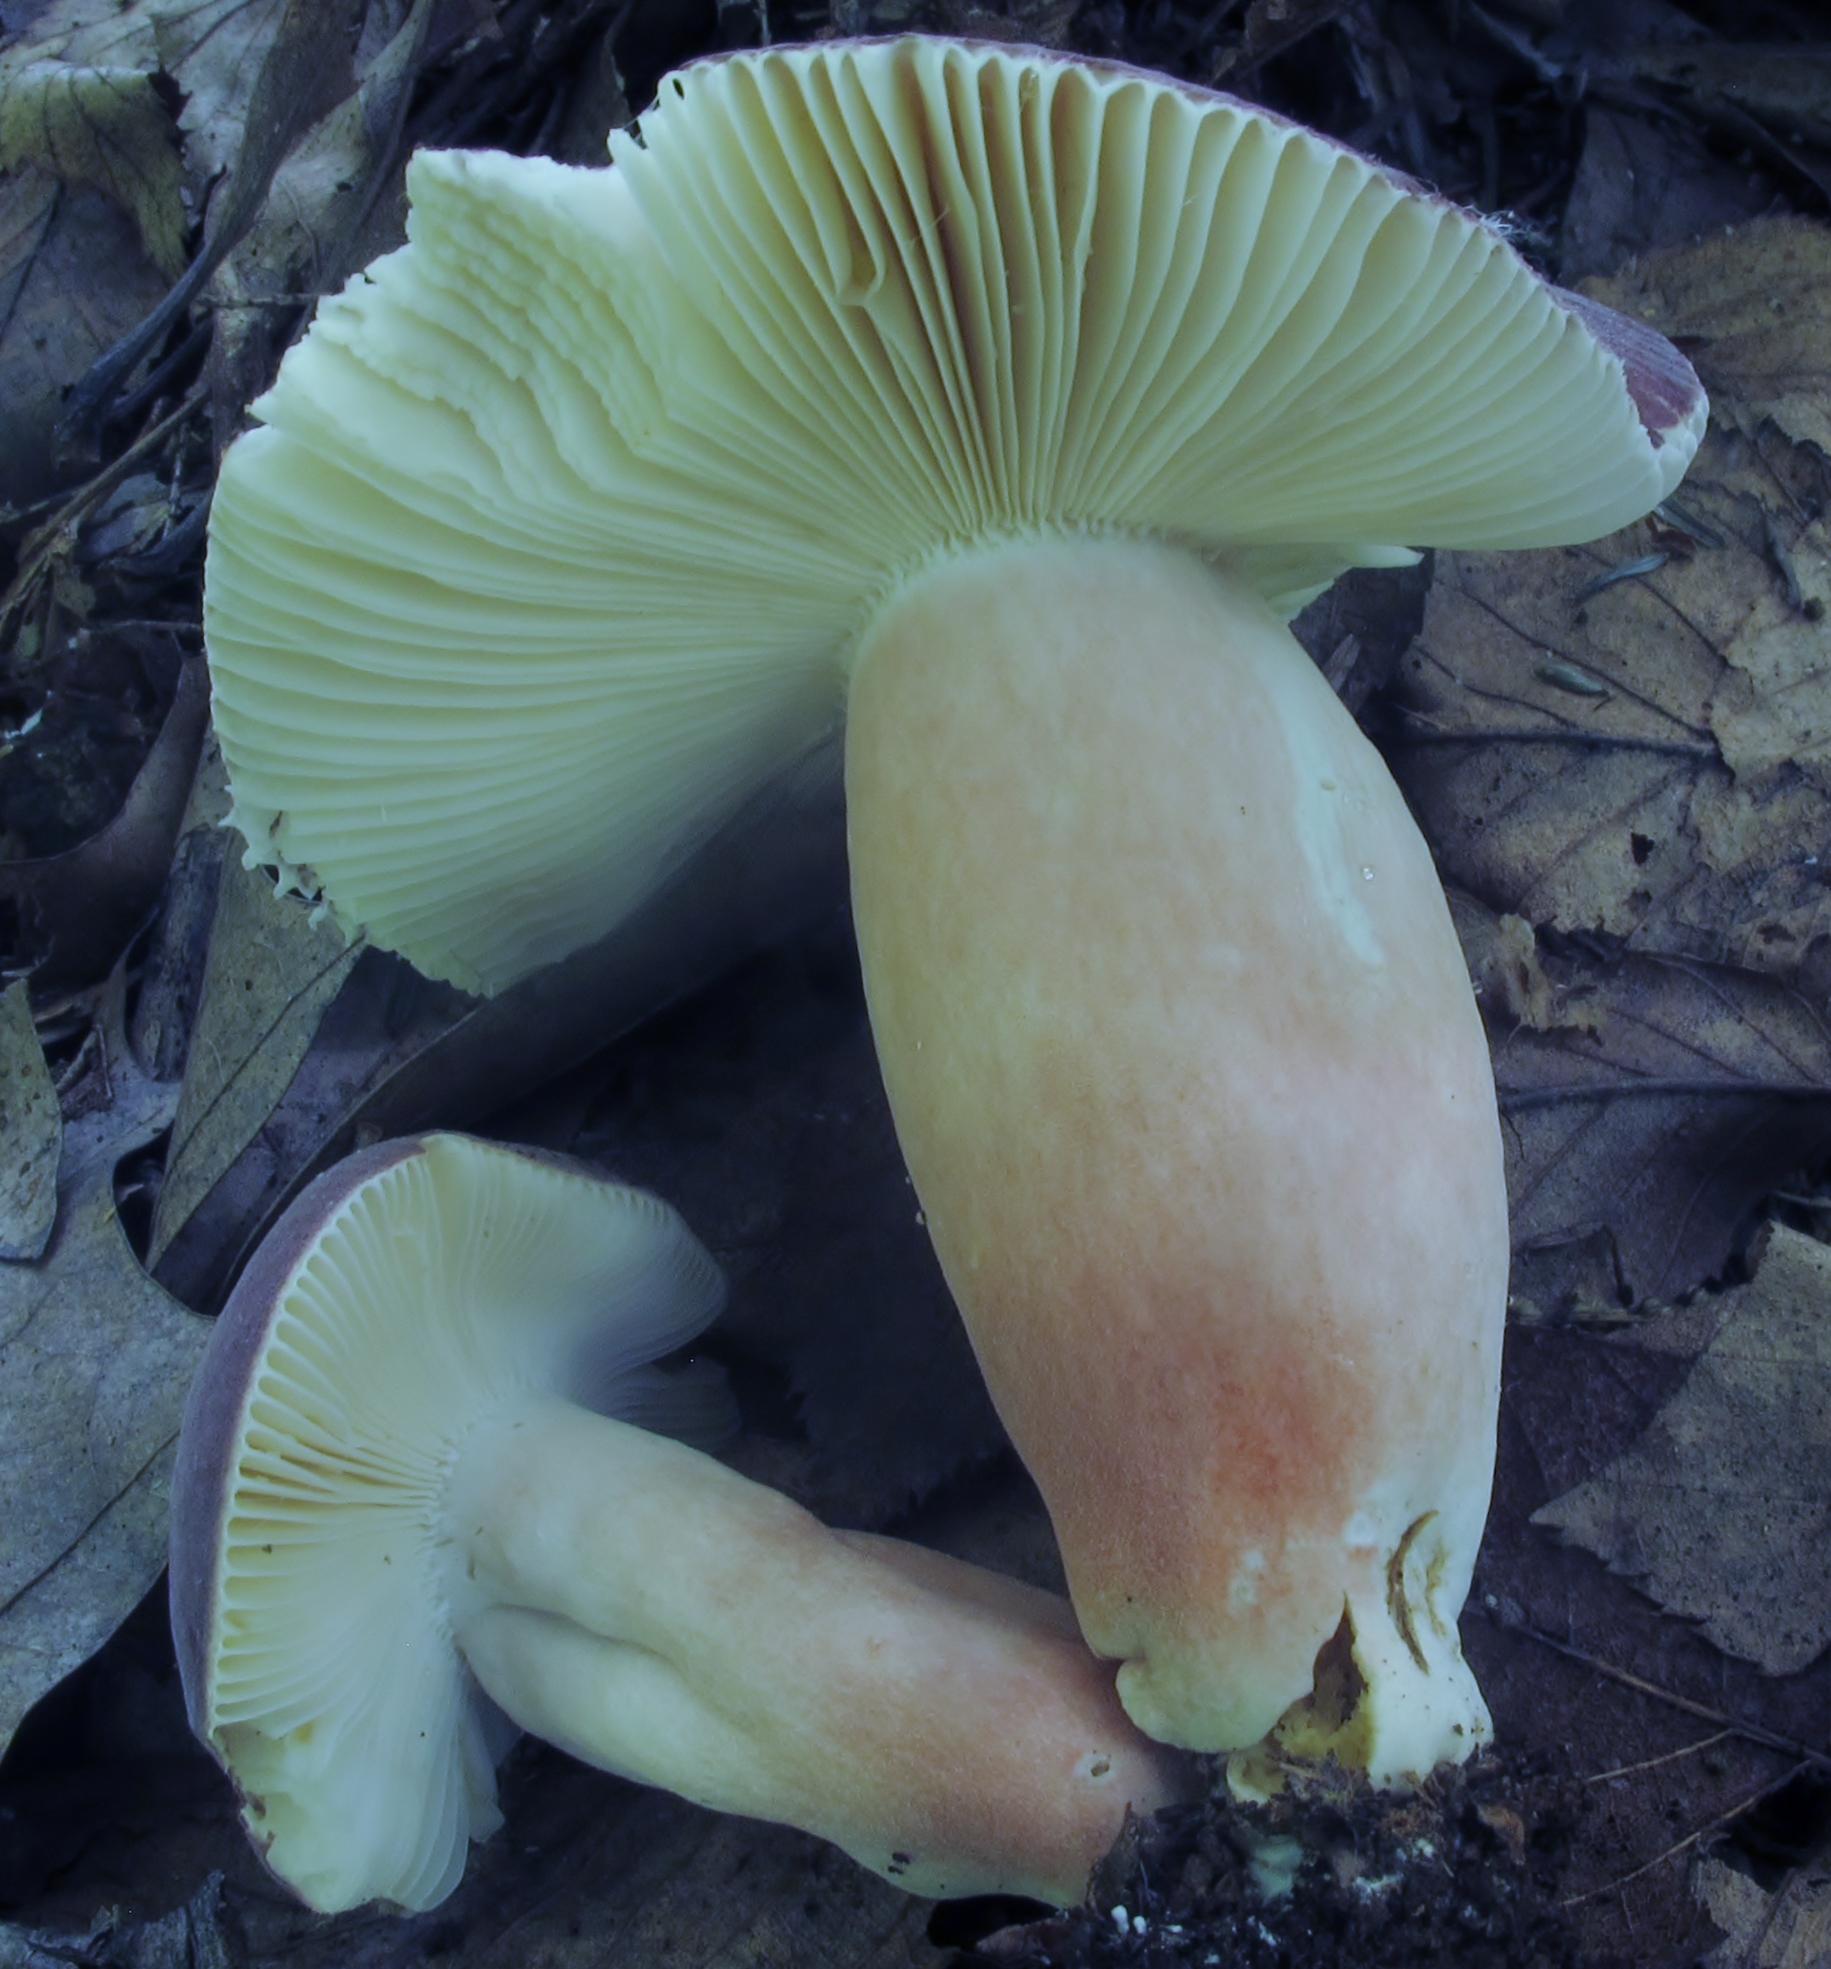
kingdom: Fungi
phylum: Basidiomycota
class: Agaricomycetes
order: Russulales
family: Russulaceae
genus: Russula
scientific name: Russula mariae
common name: Purple-bloom russula
